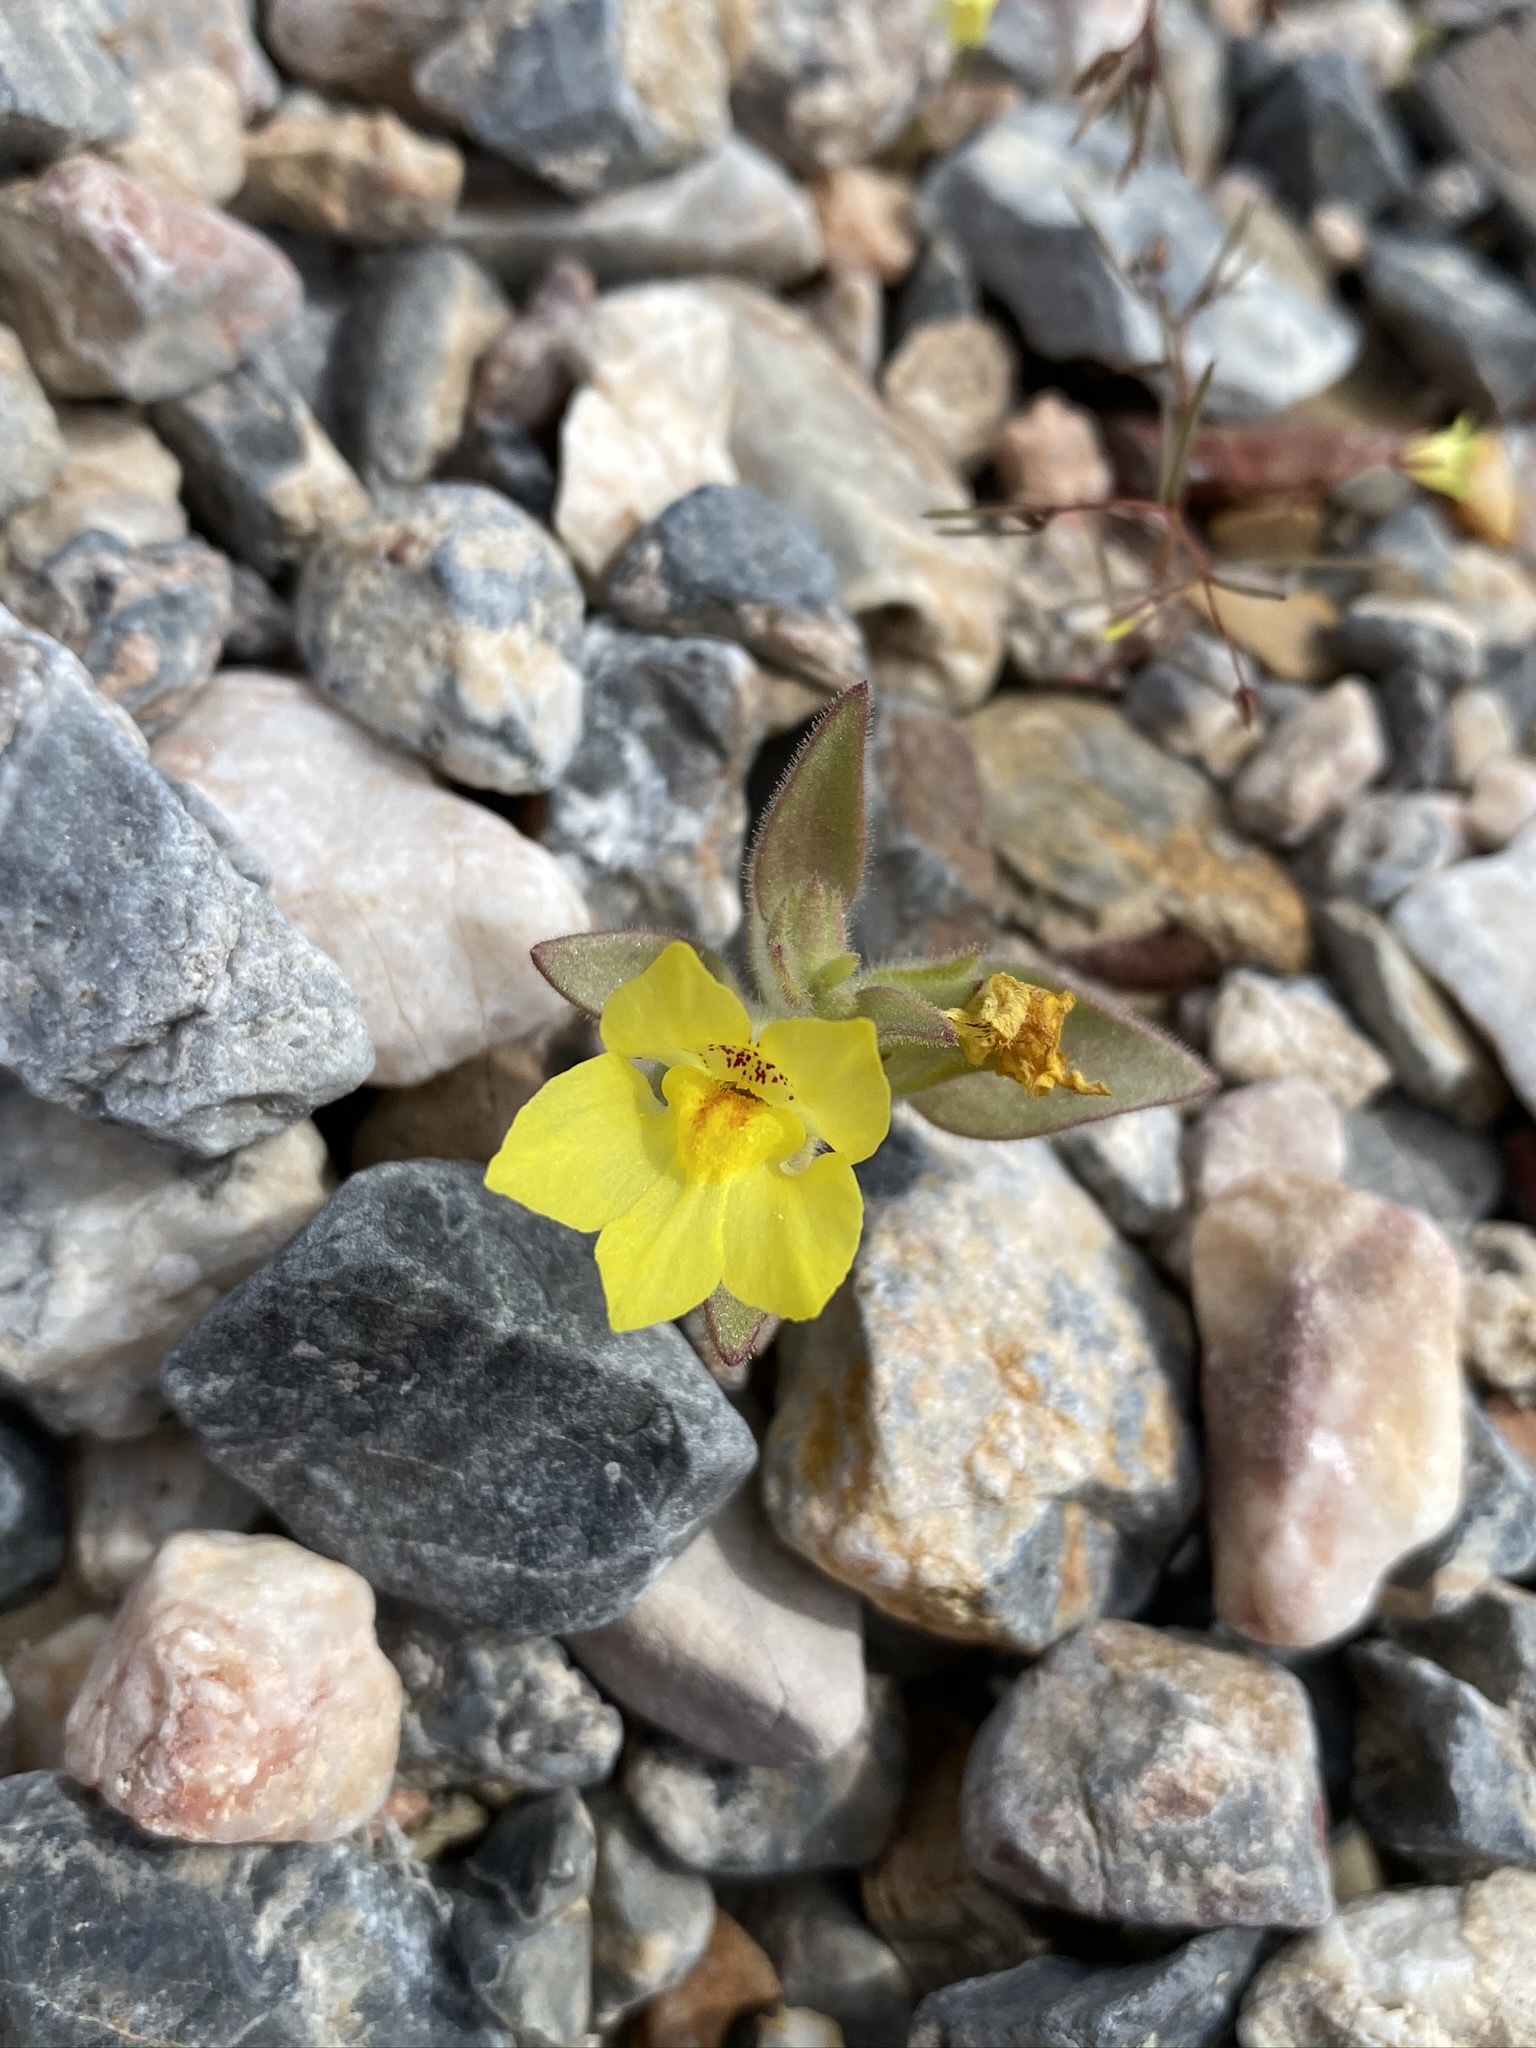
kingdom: Plantae
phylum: Tracheophyta
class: Magnoliopsida
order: Lamiales
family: Plantaginaceae
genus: Mohavea
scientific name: Mohavea breviflora
